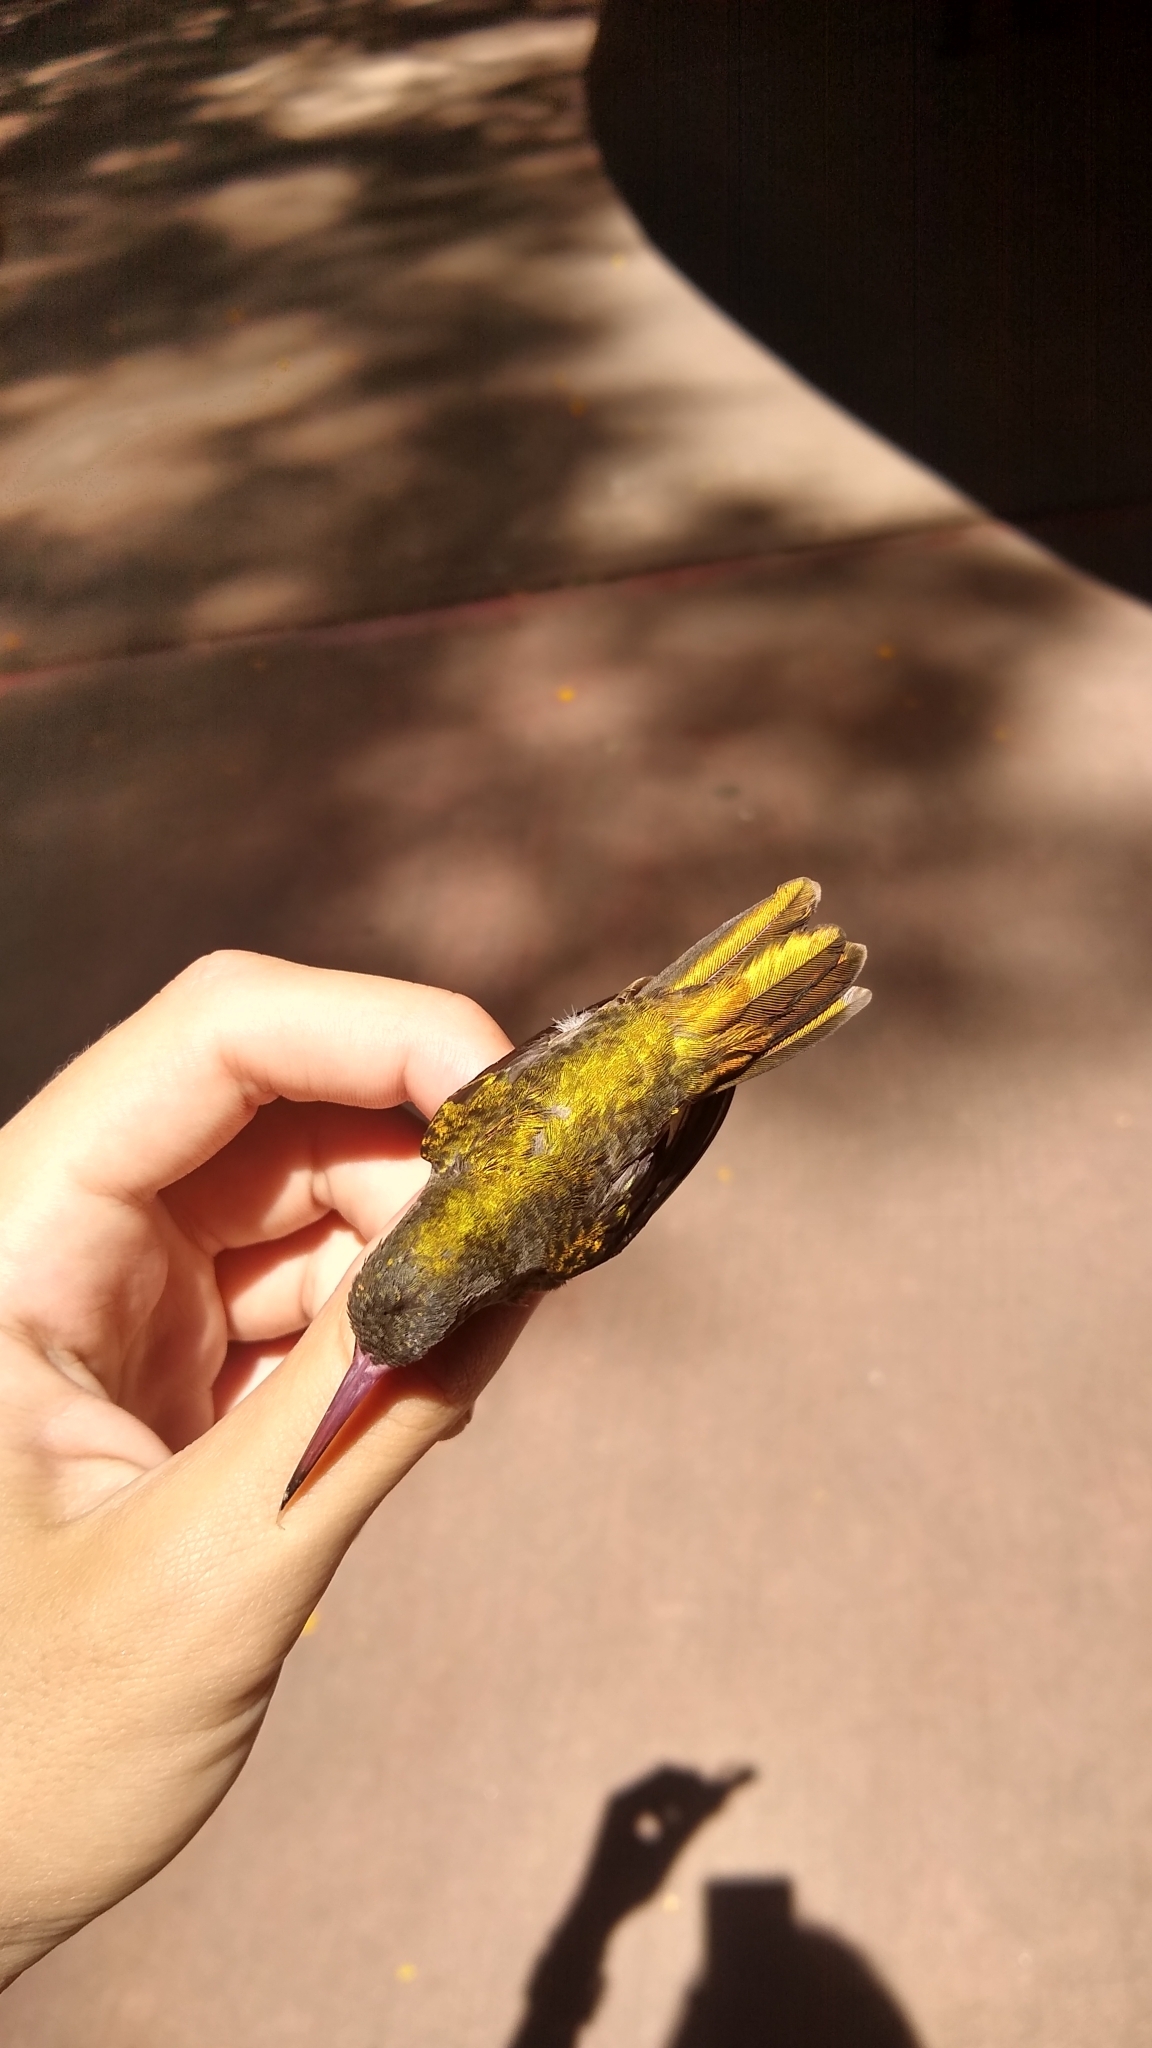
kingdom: Animalia
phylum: Chordata
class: Aves
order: Apodiformes
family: Trochilidae
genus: Hylocharis
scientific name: Hylocharis chrysura
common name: Gilded sapphire
